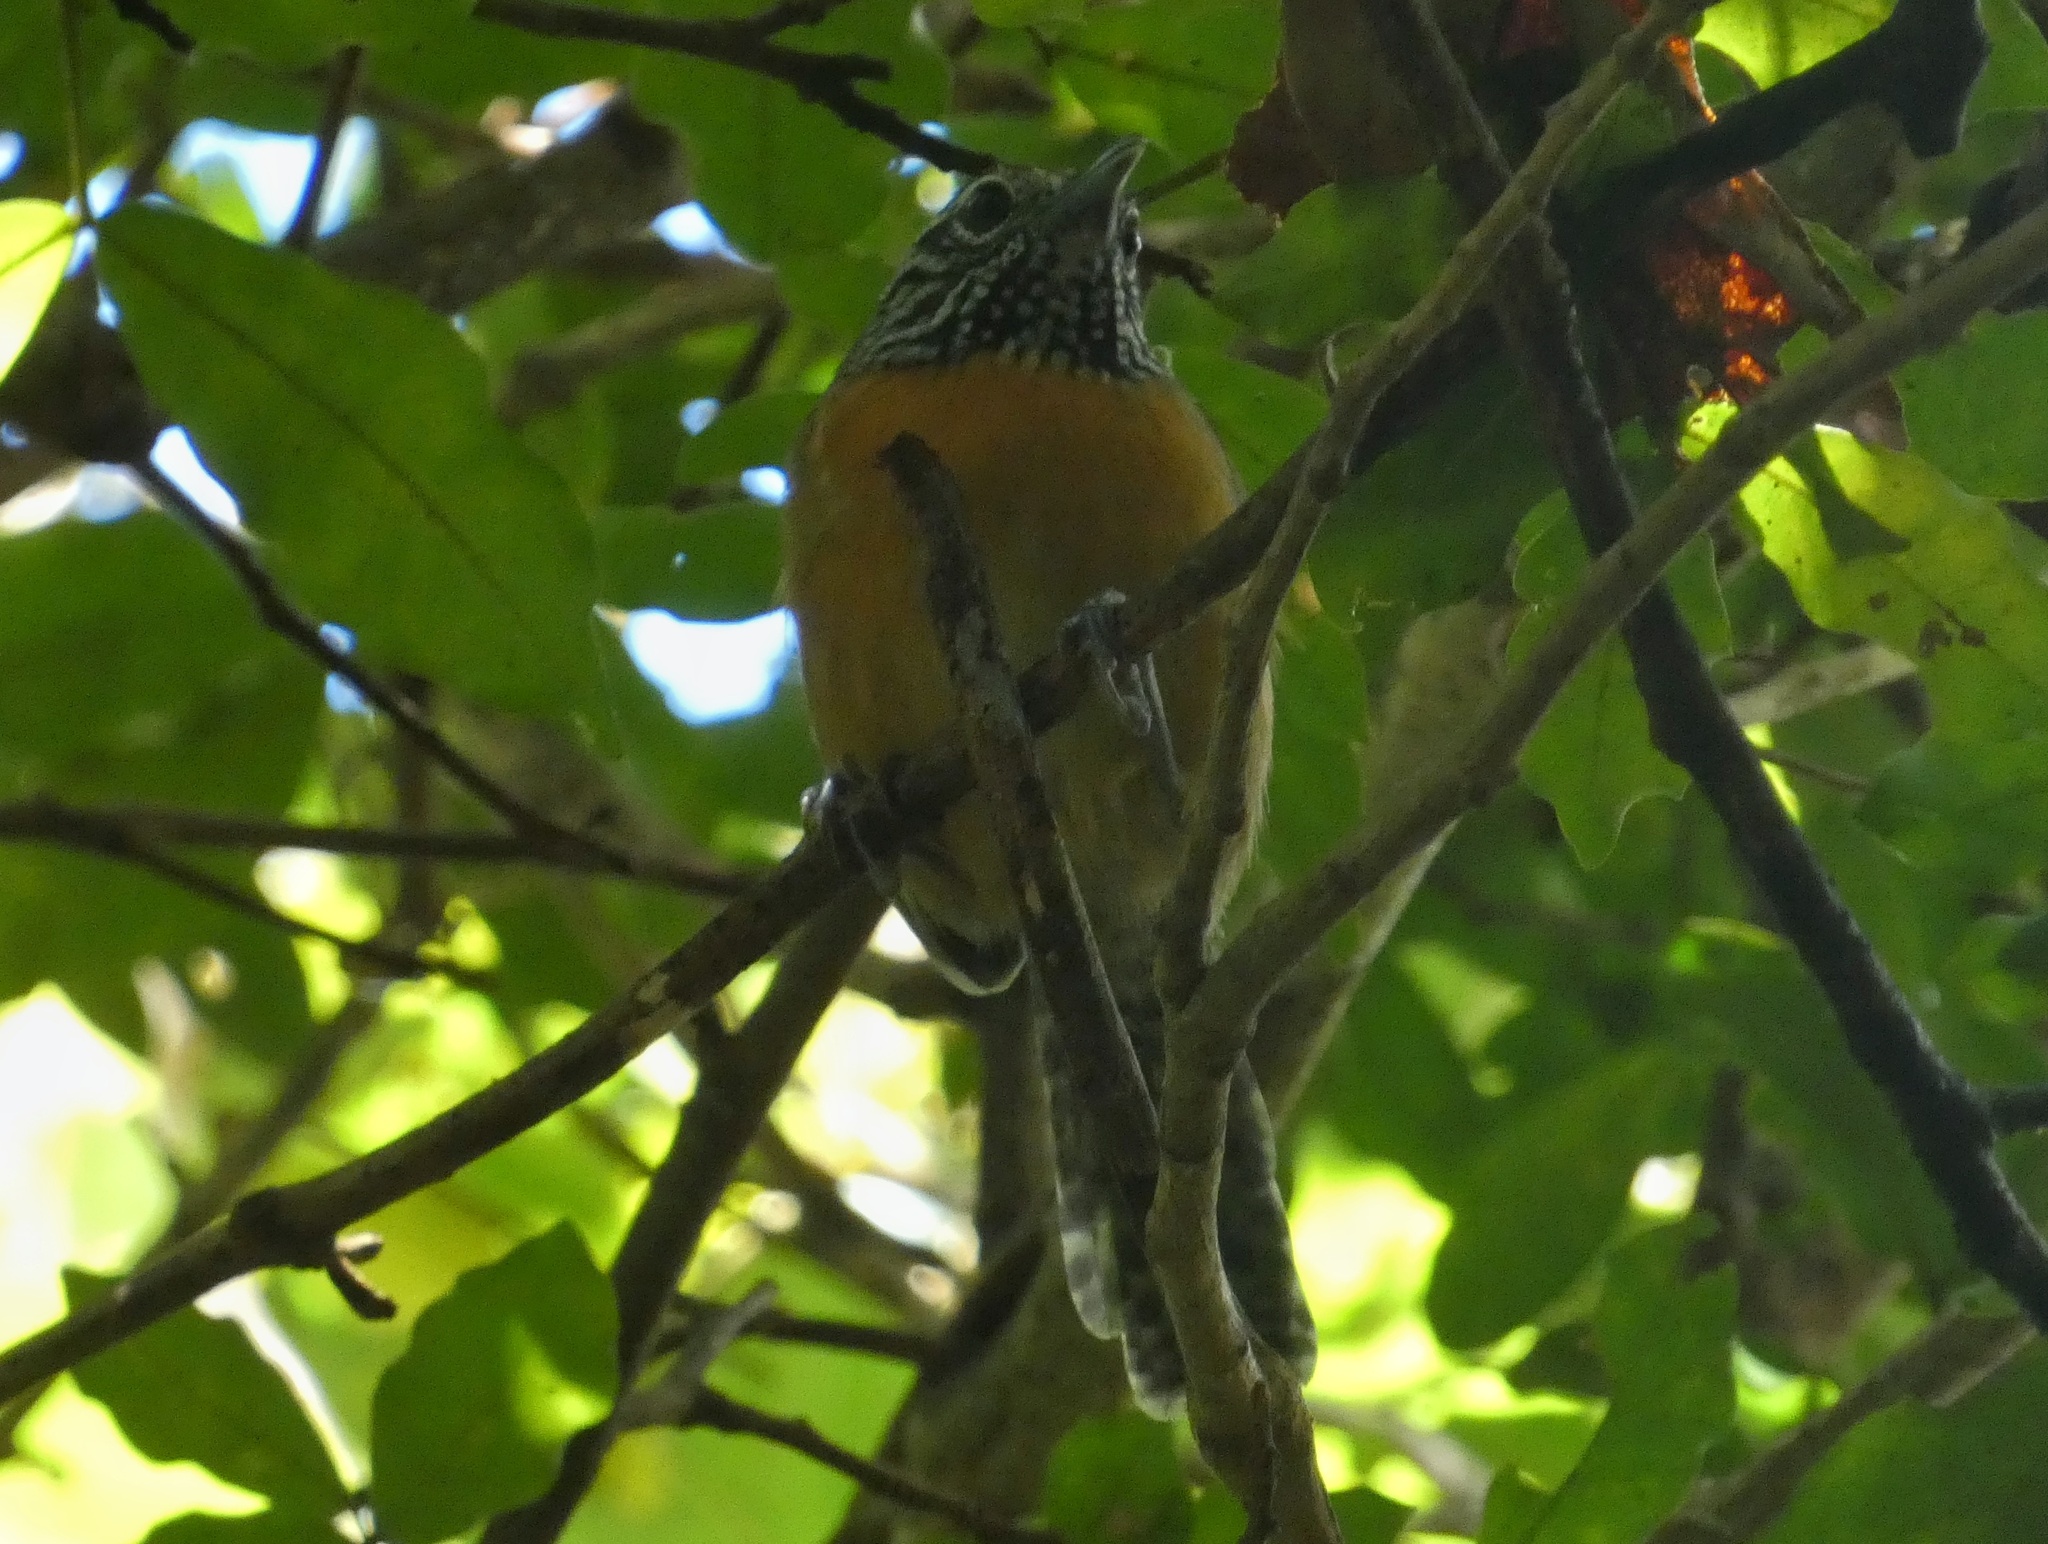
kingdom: Animalia
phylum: Chordata
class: Aves
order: Passeriformes
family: Troglodytidae
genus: Pheugopedius
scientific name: Pheugopedius rutilus
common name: Rufous-breasted wren
